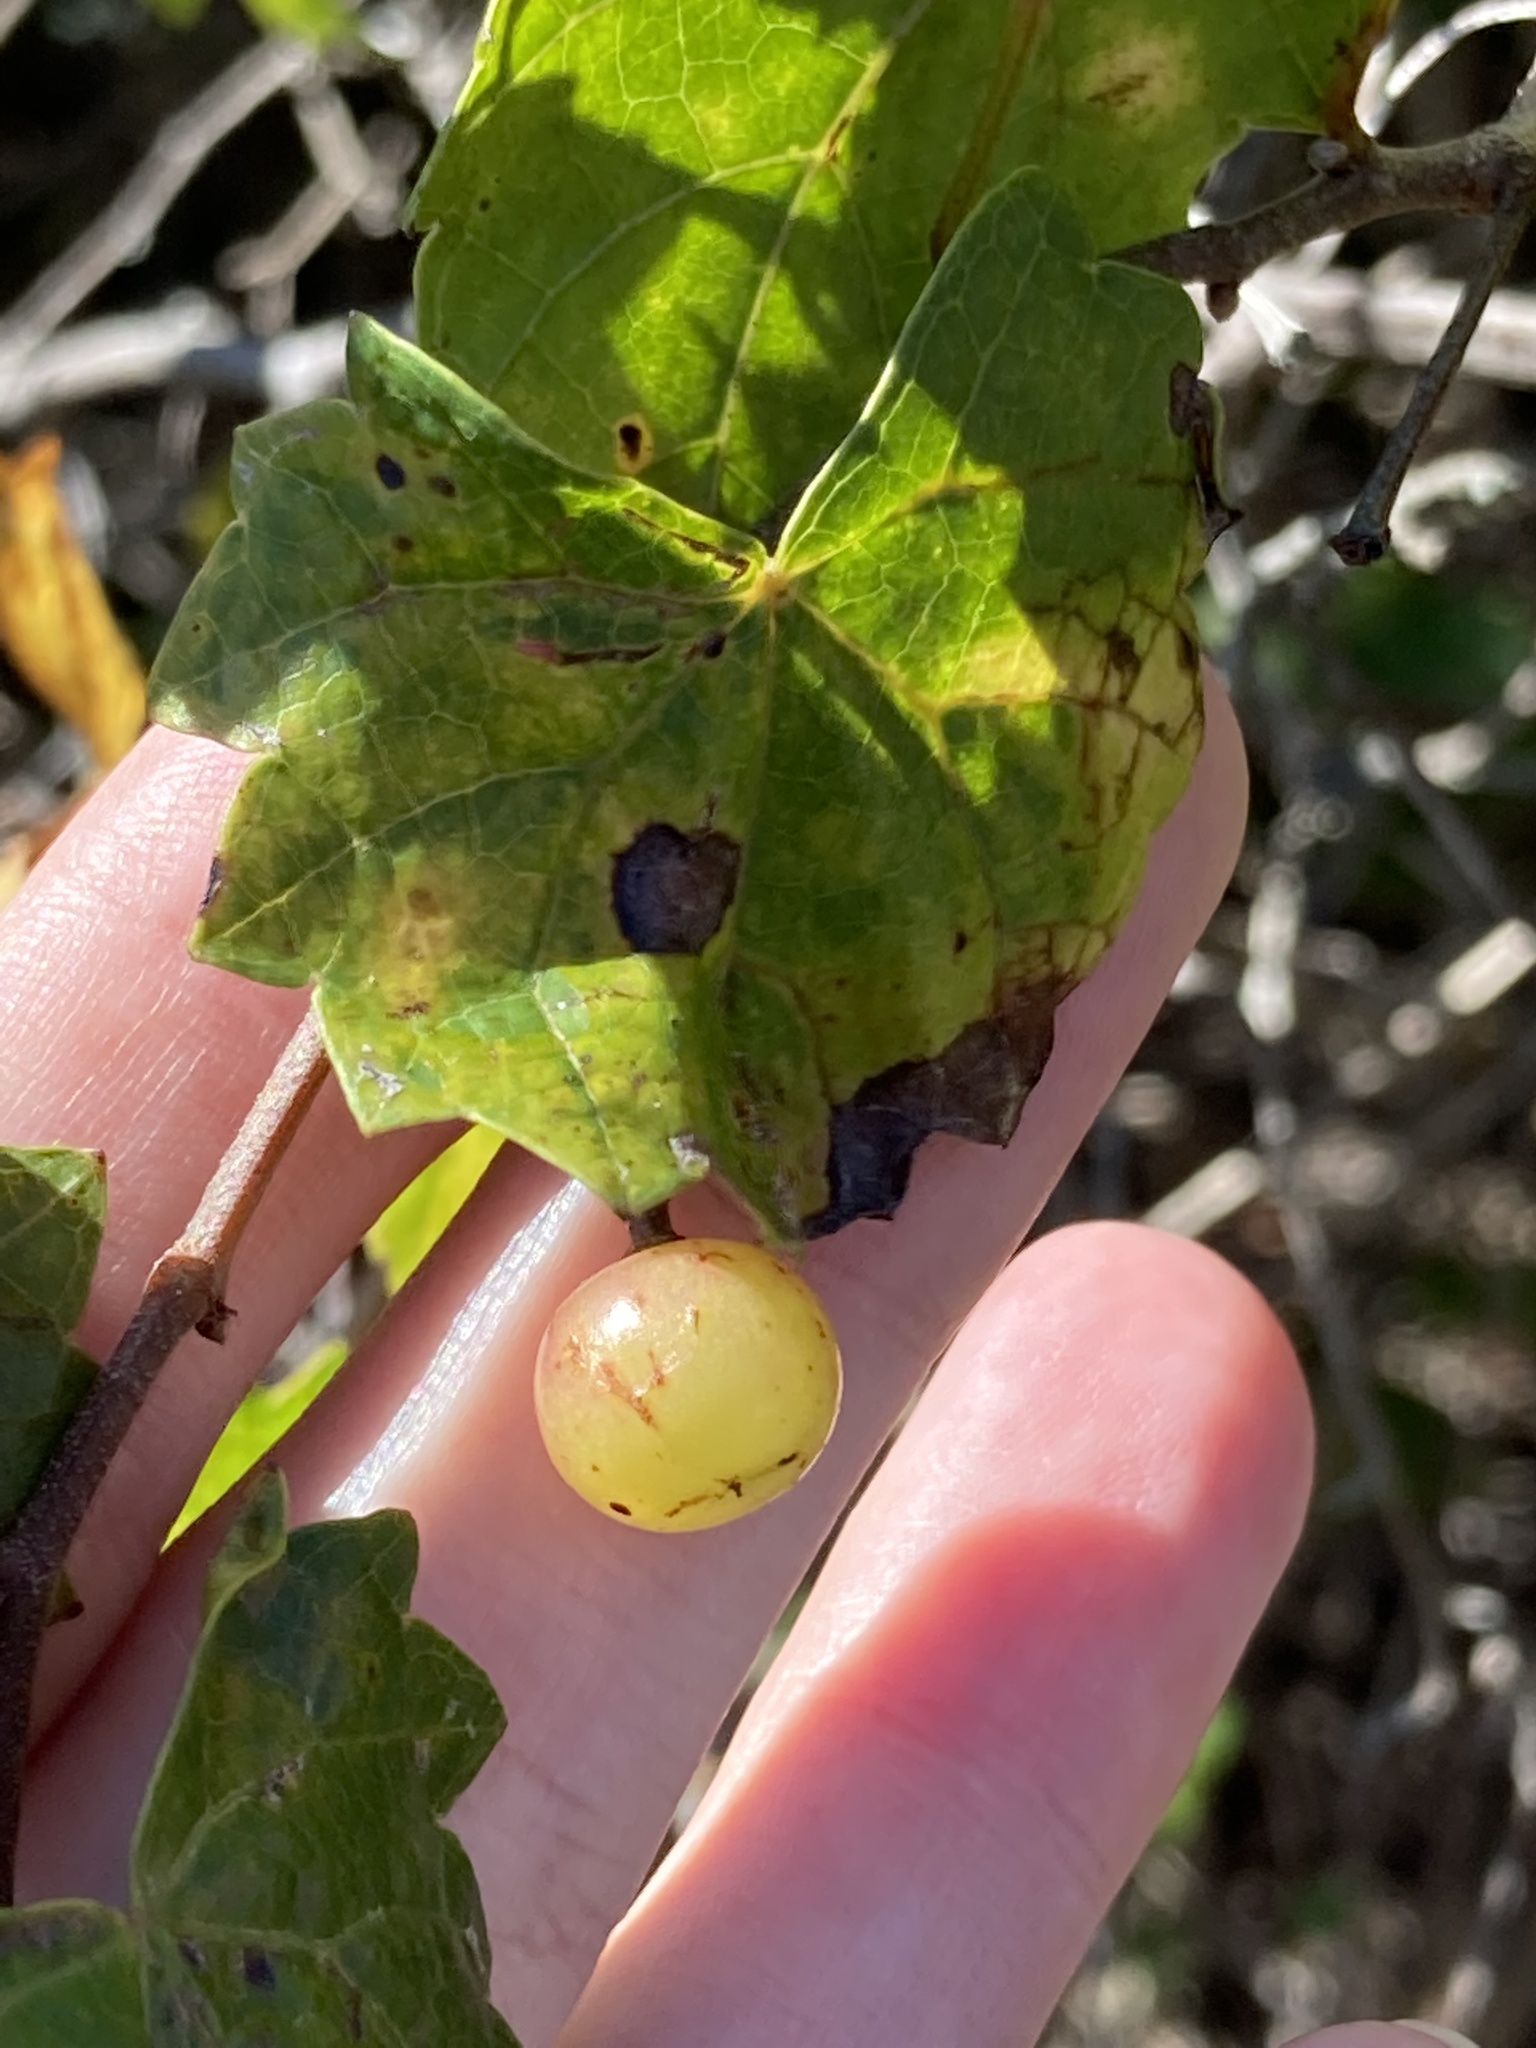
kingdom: Plantae
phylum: Tracheophyta
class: Magnoliopsida
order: Vitales
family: Vitaceae
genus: Vitis
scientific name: Vitis rotundifolia
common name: Muscadine grape
